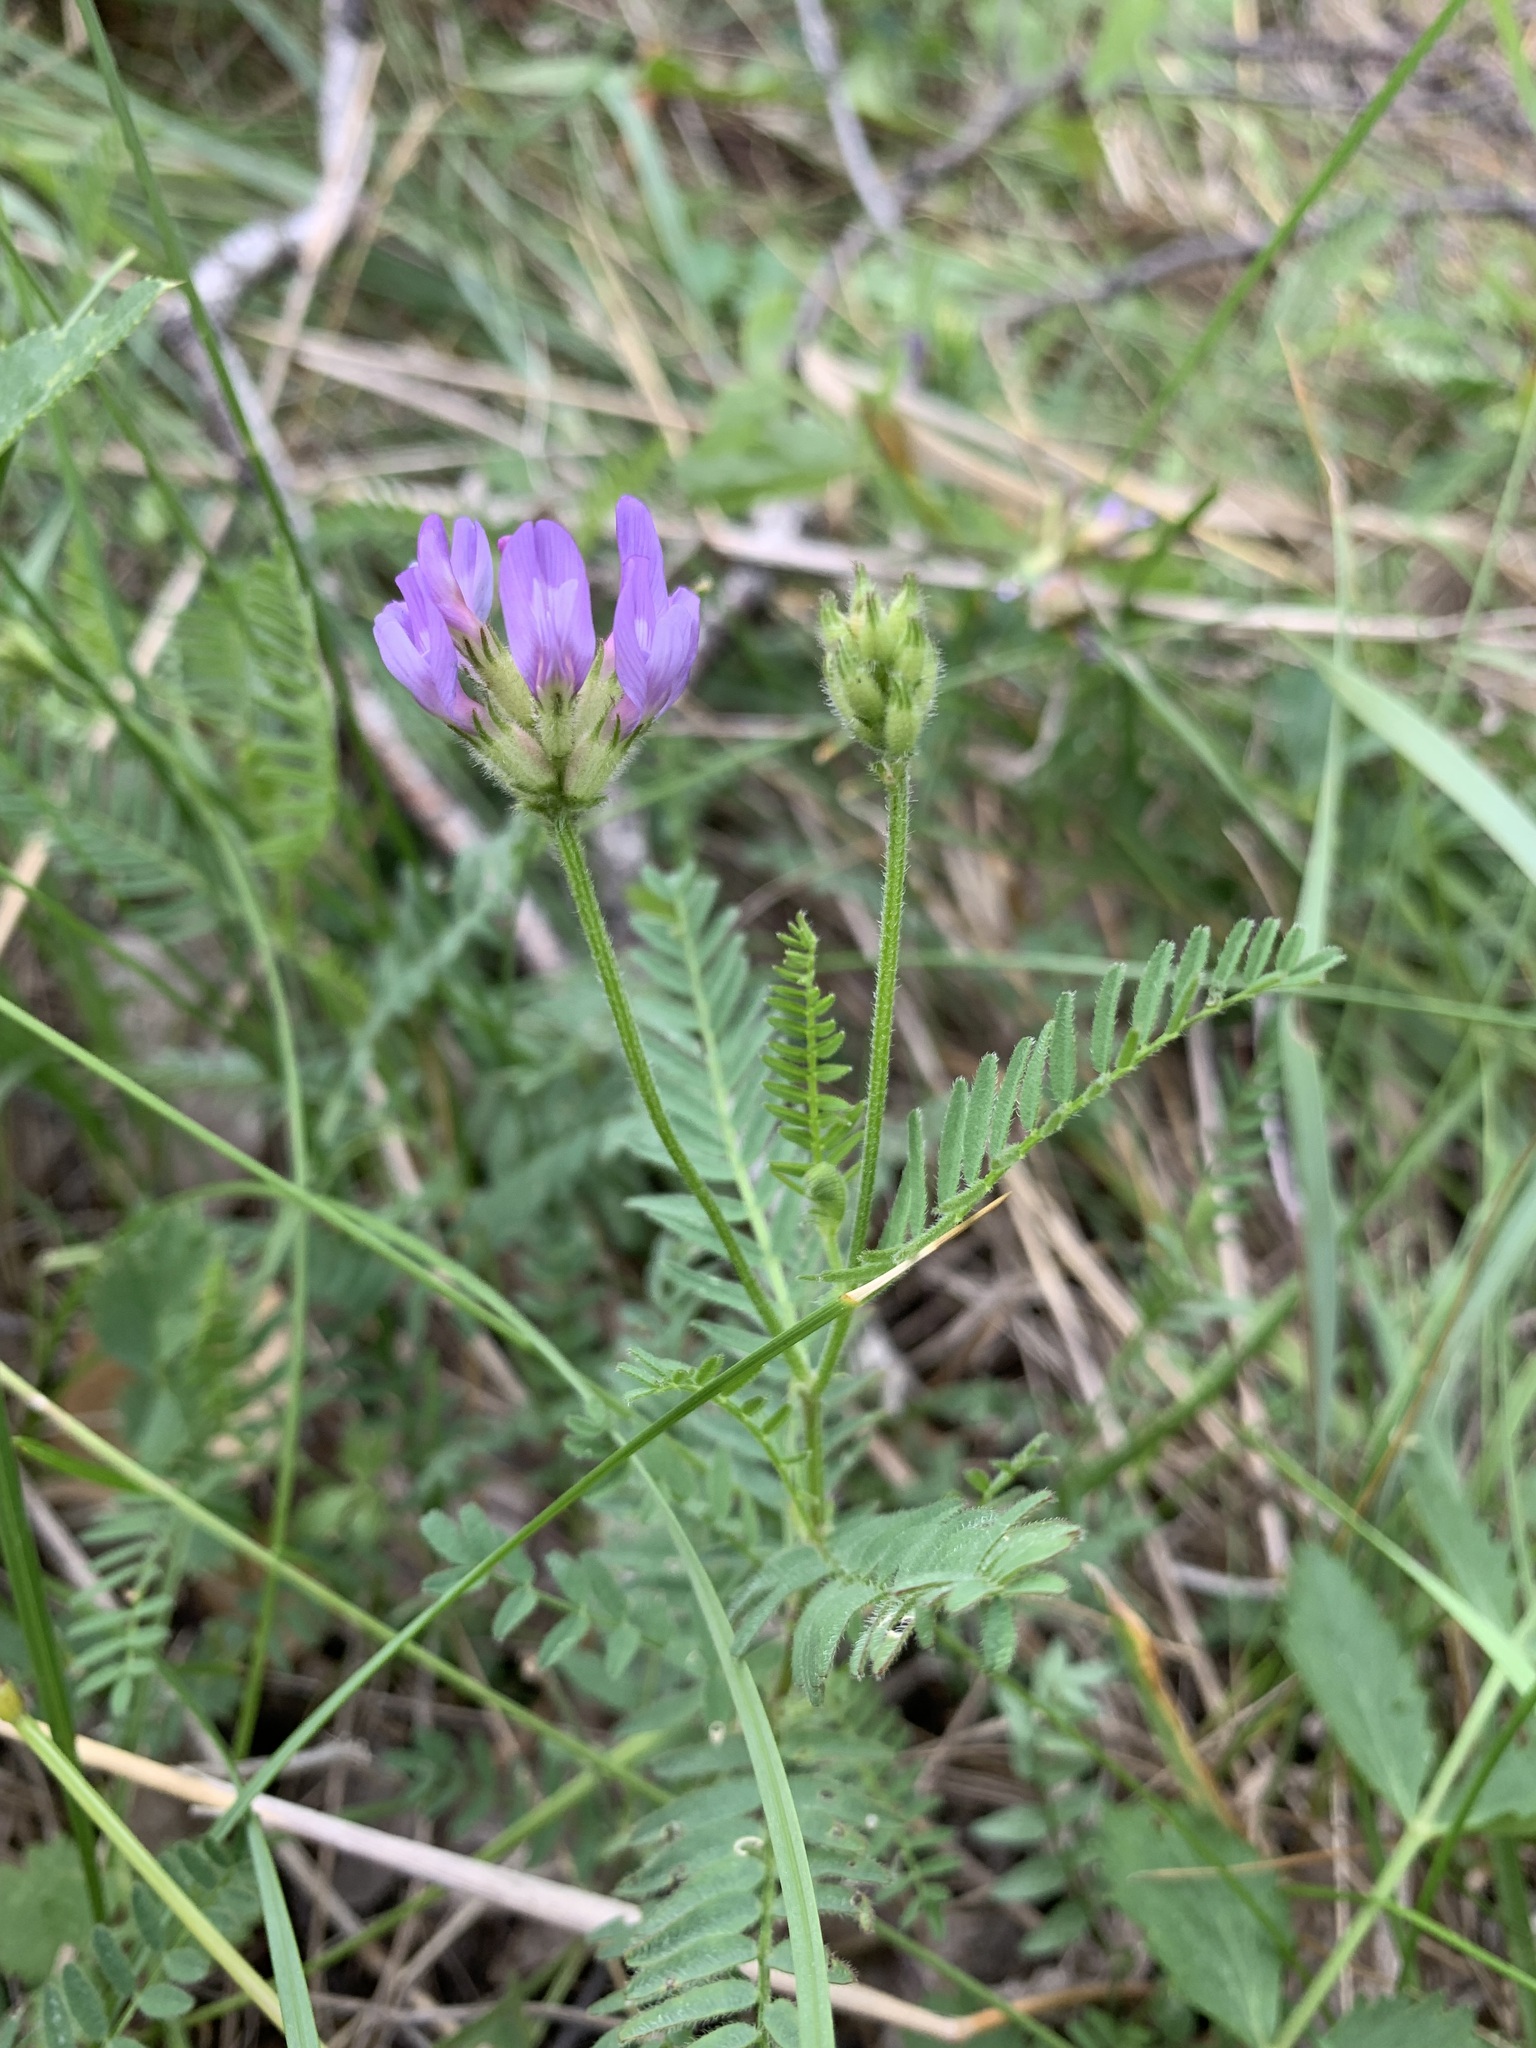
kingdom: Plantae
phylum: Tracheophyta
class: Magnoliopsida
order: Fabales
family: Fabaceae
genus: Astragalus
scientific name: Astragalus danicus
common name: Purple milk-vetch
